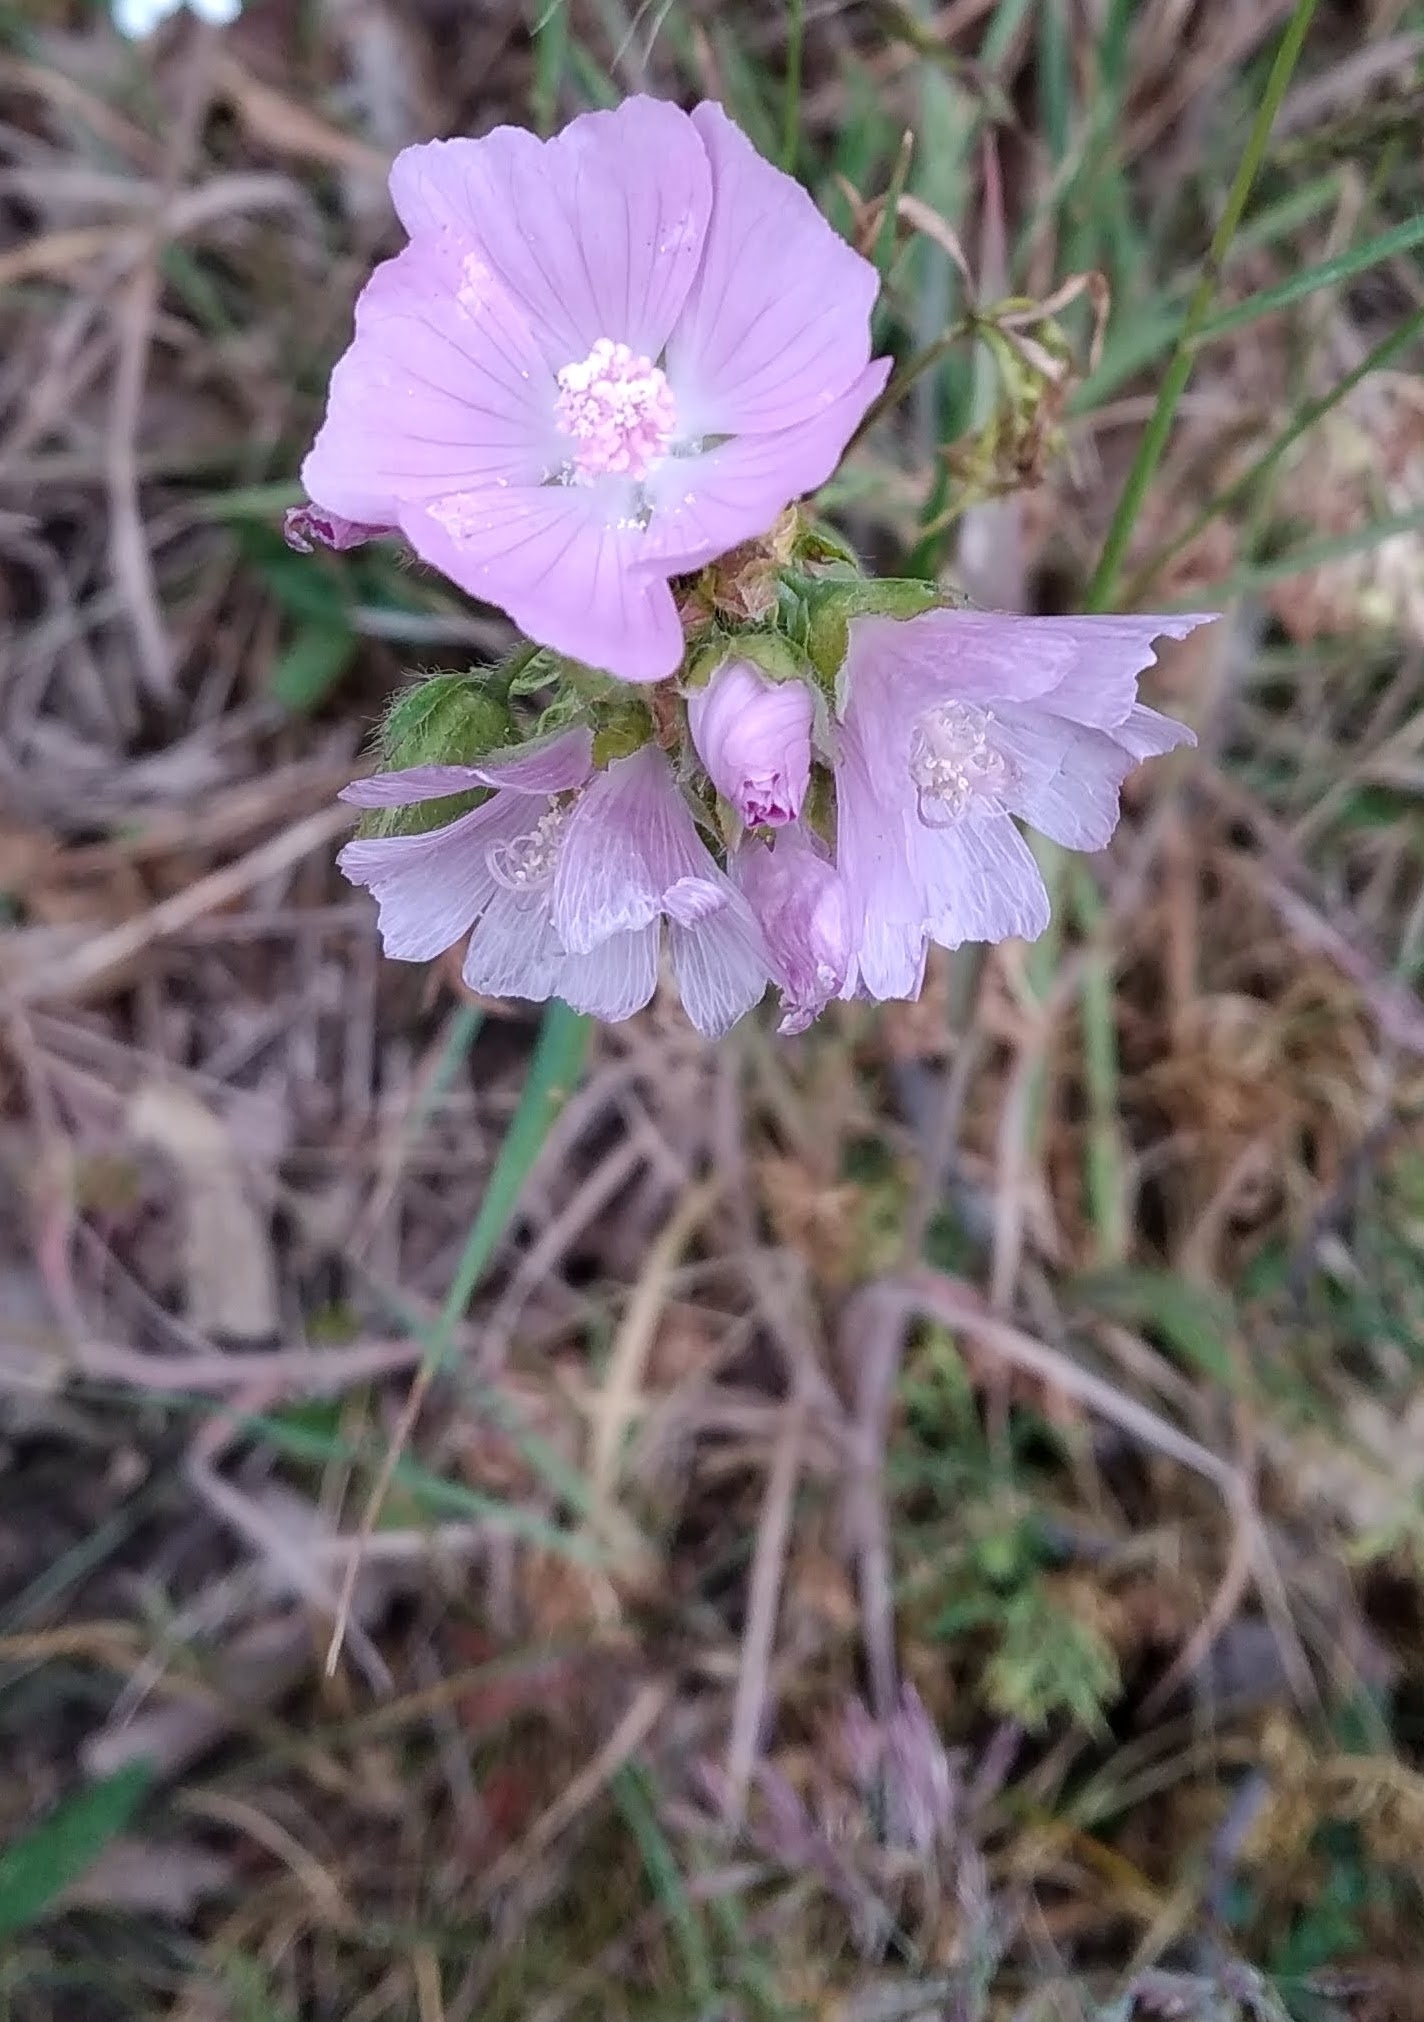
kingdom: Plantae
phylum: Tracheophyta
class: Magnoliopsida
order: Malvales
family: Malvaceae
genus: Malva
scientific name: Malva moschata
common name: Musk mallow
